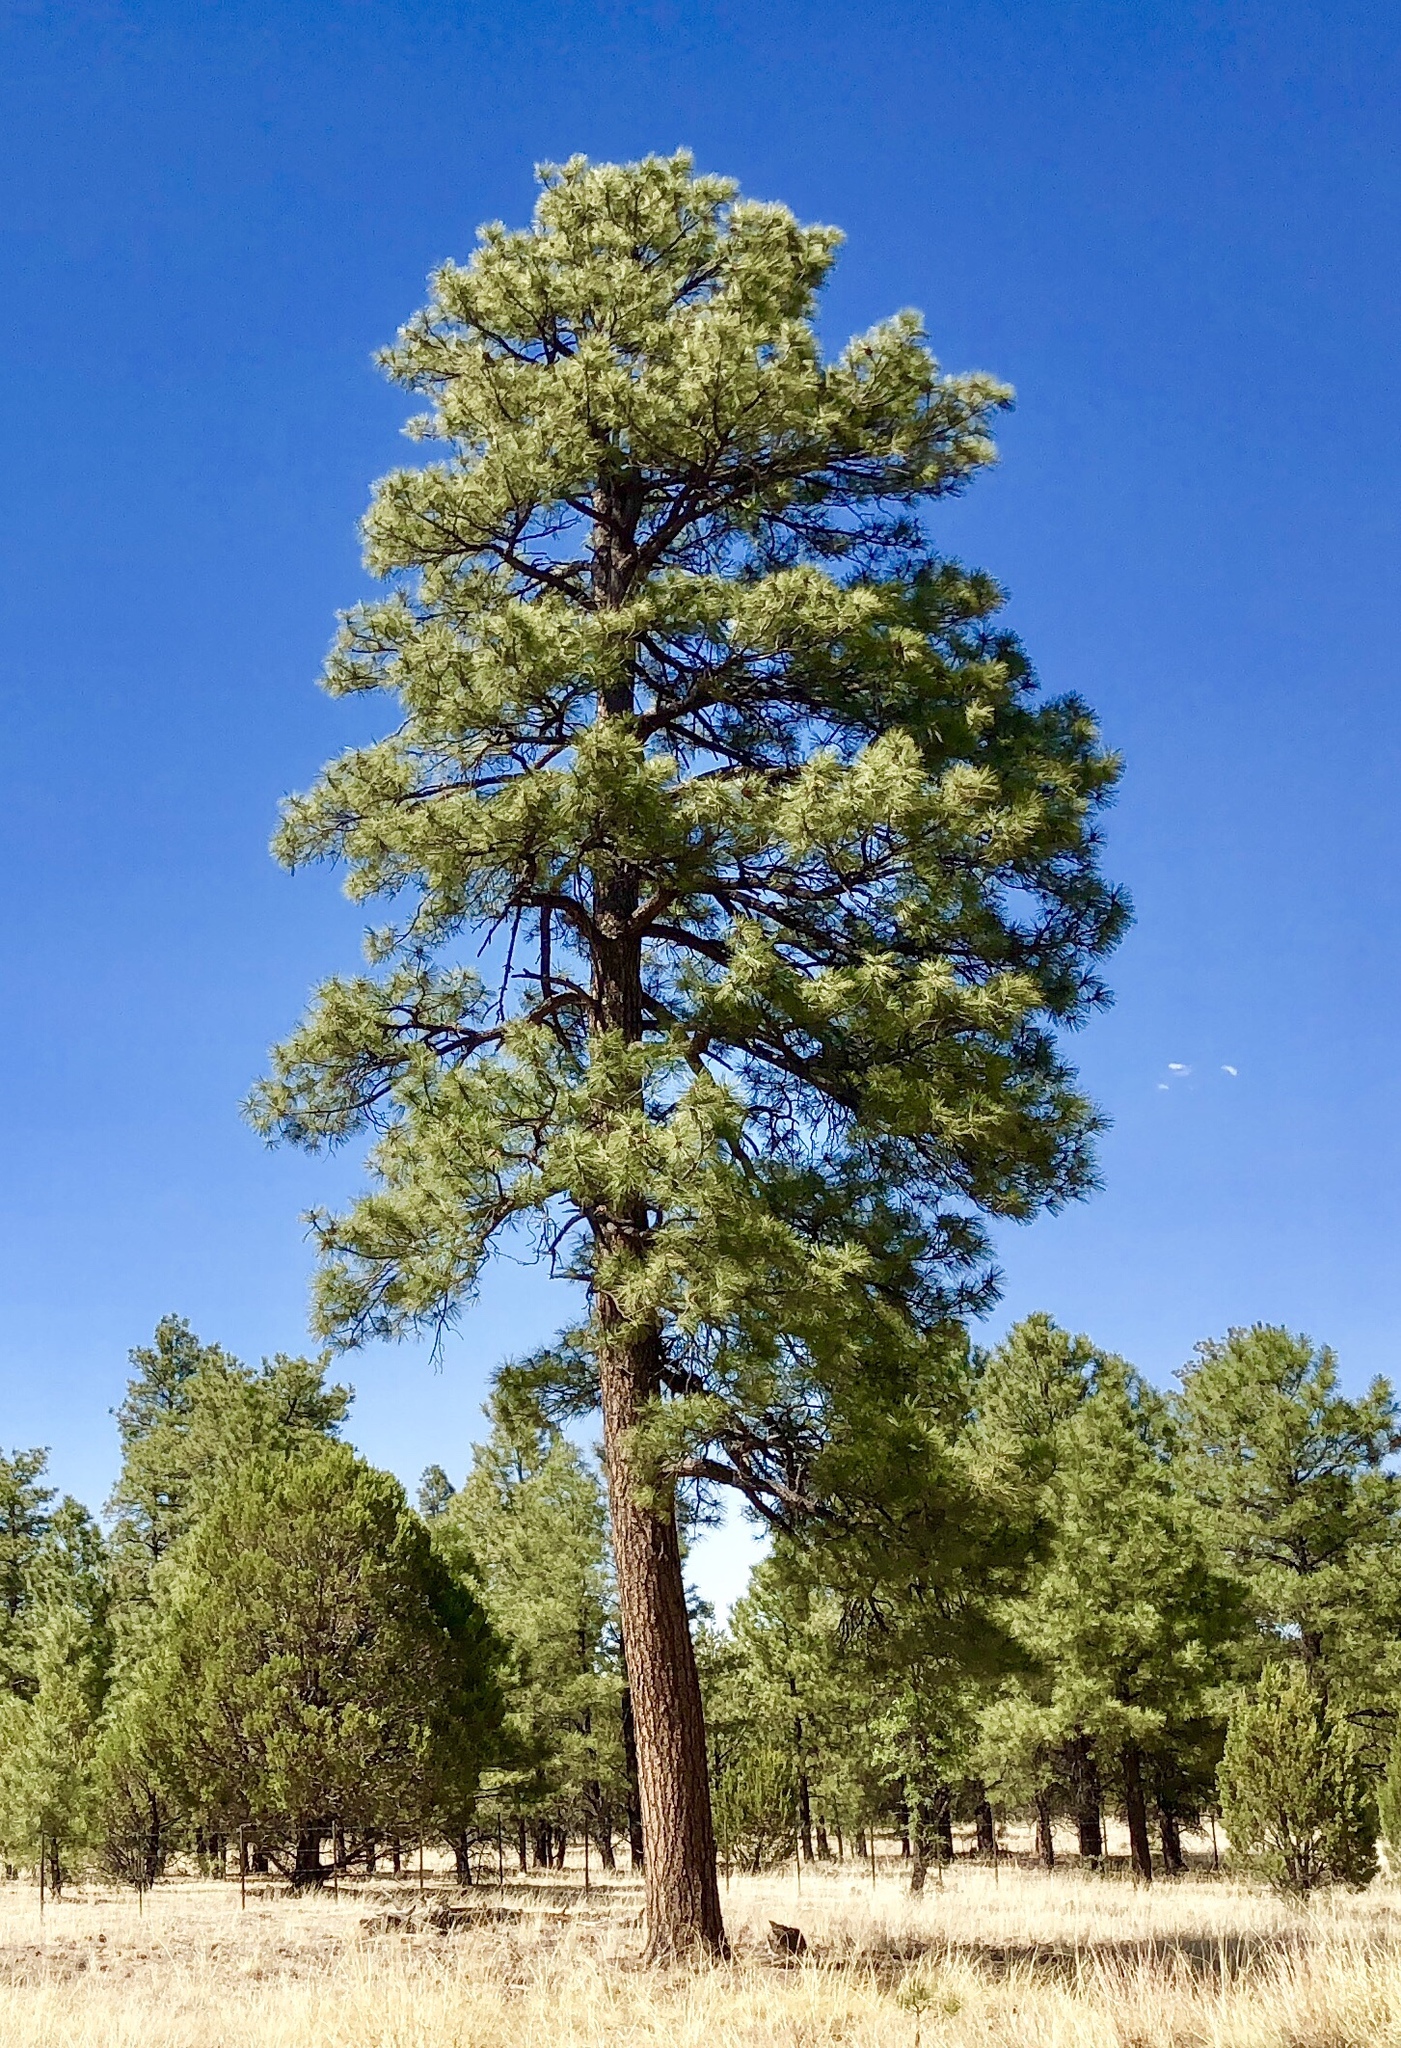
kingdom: Plantae
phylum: Tracheophyta
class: Pinopsida
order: Pinales
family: Pinaceae
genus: Pinus
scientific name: Pinus ponderosa
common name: Western yellow-pine
